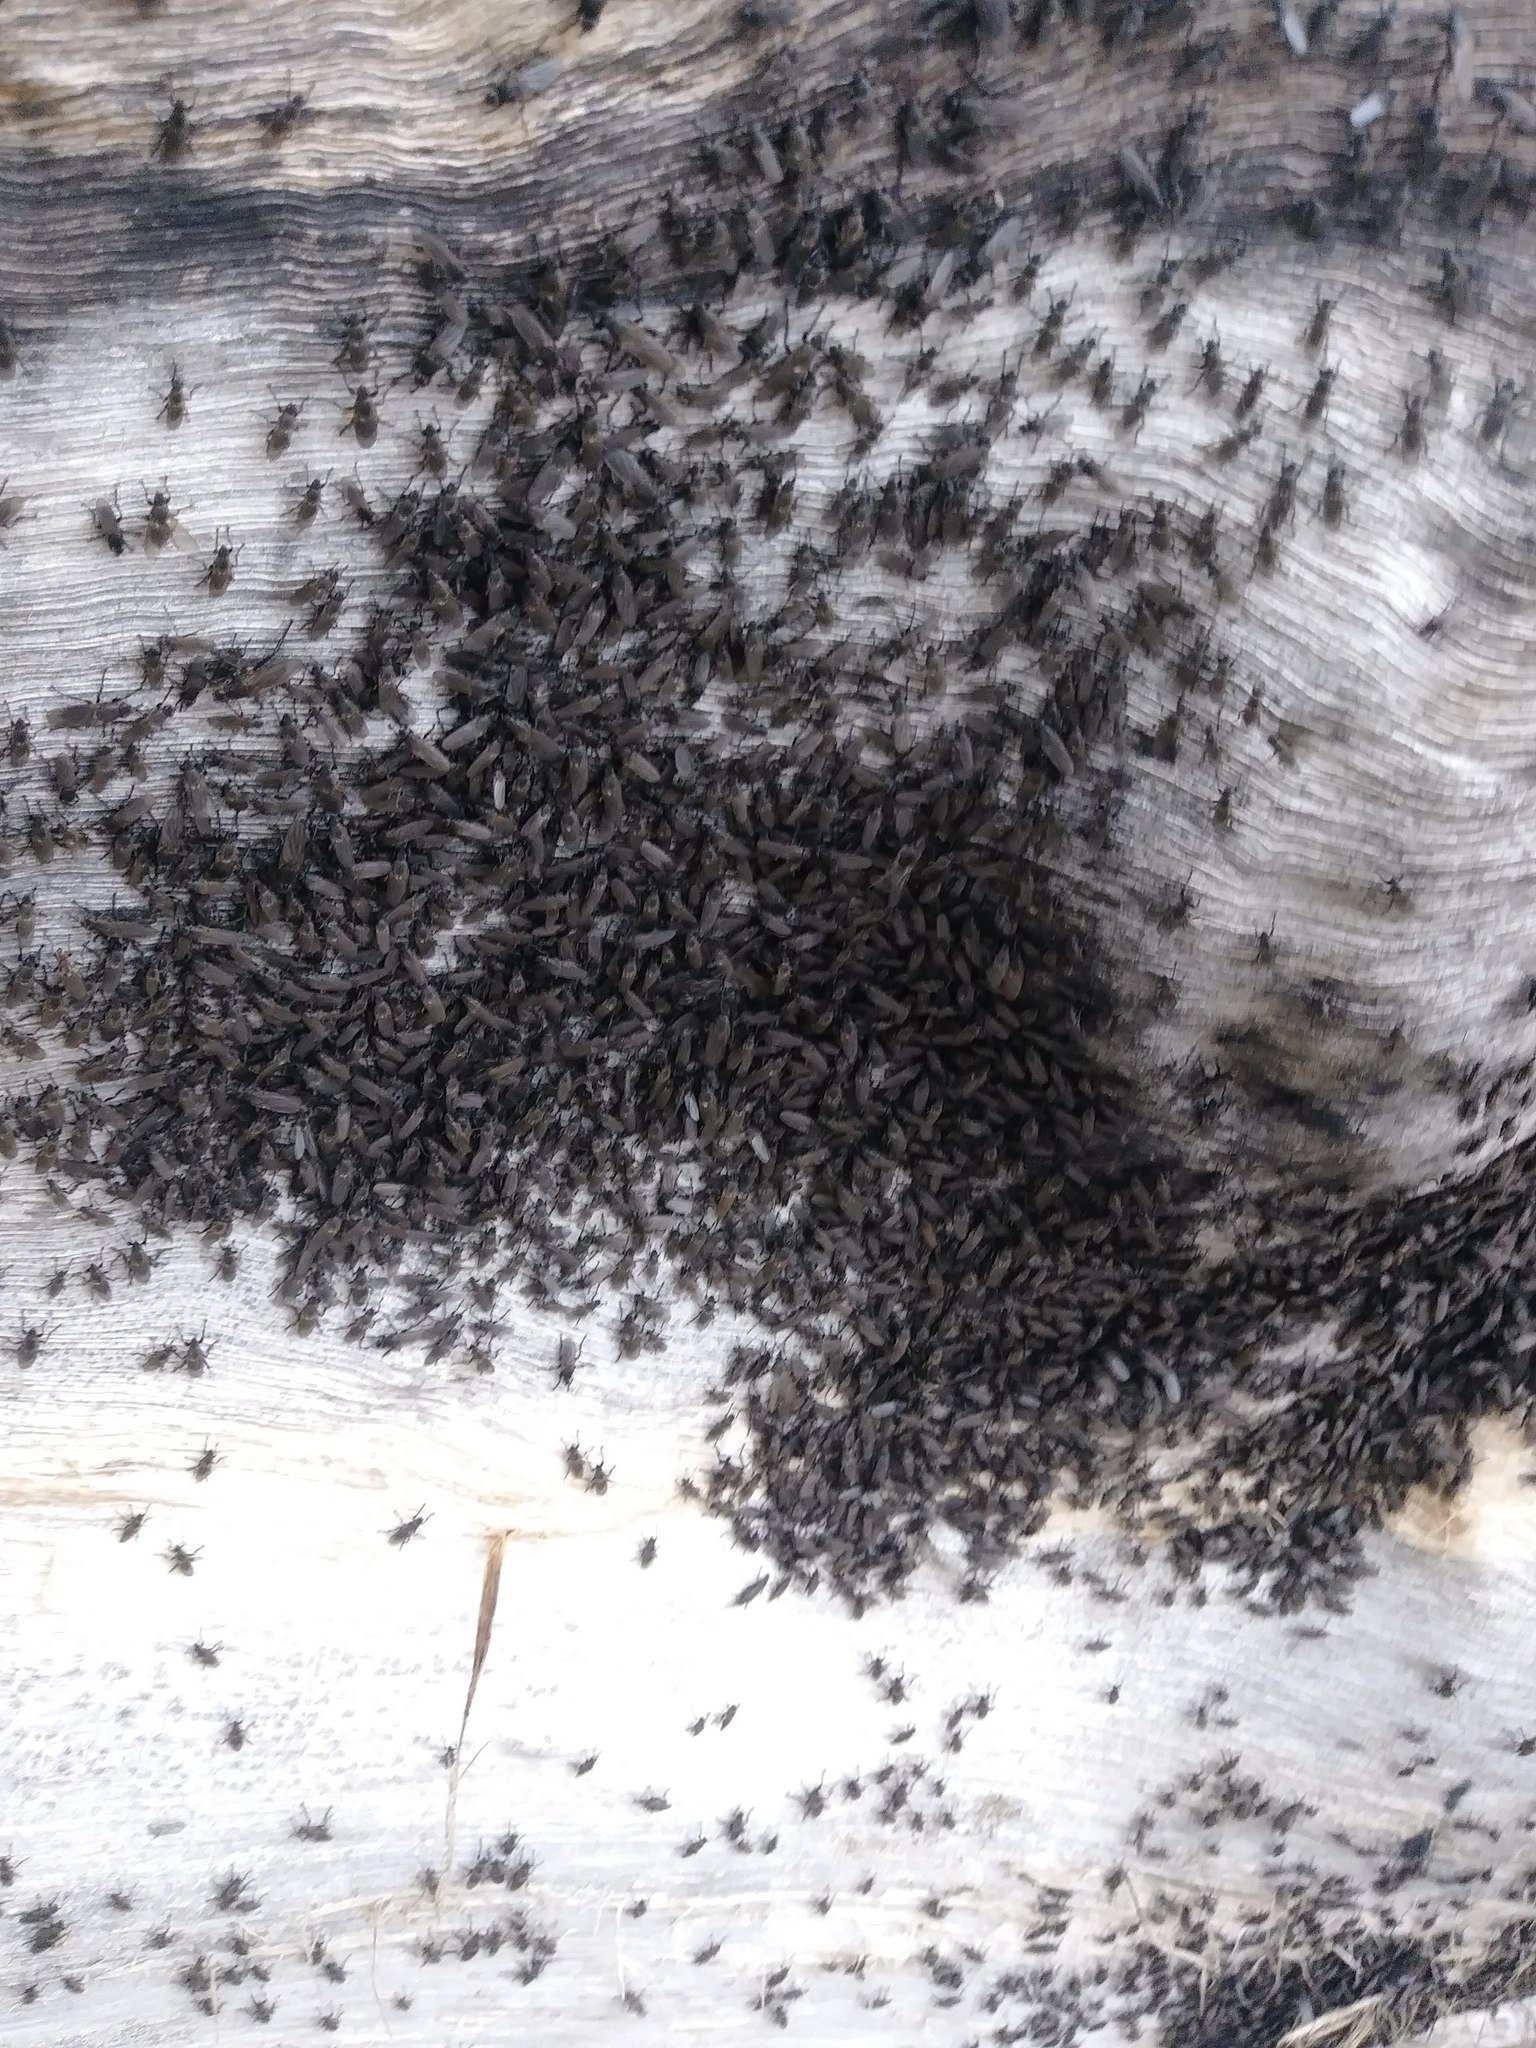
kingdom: Animalia
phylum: Arthropoda
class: Insecta
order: Diptera
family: Coelopidae
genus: Coelopa
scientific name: Coelopa vanduzeei
